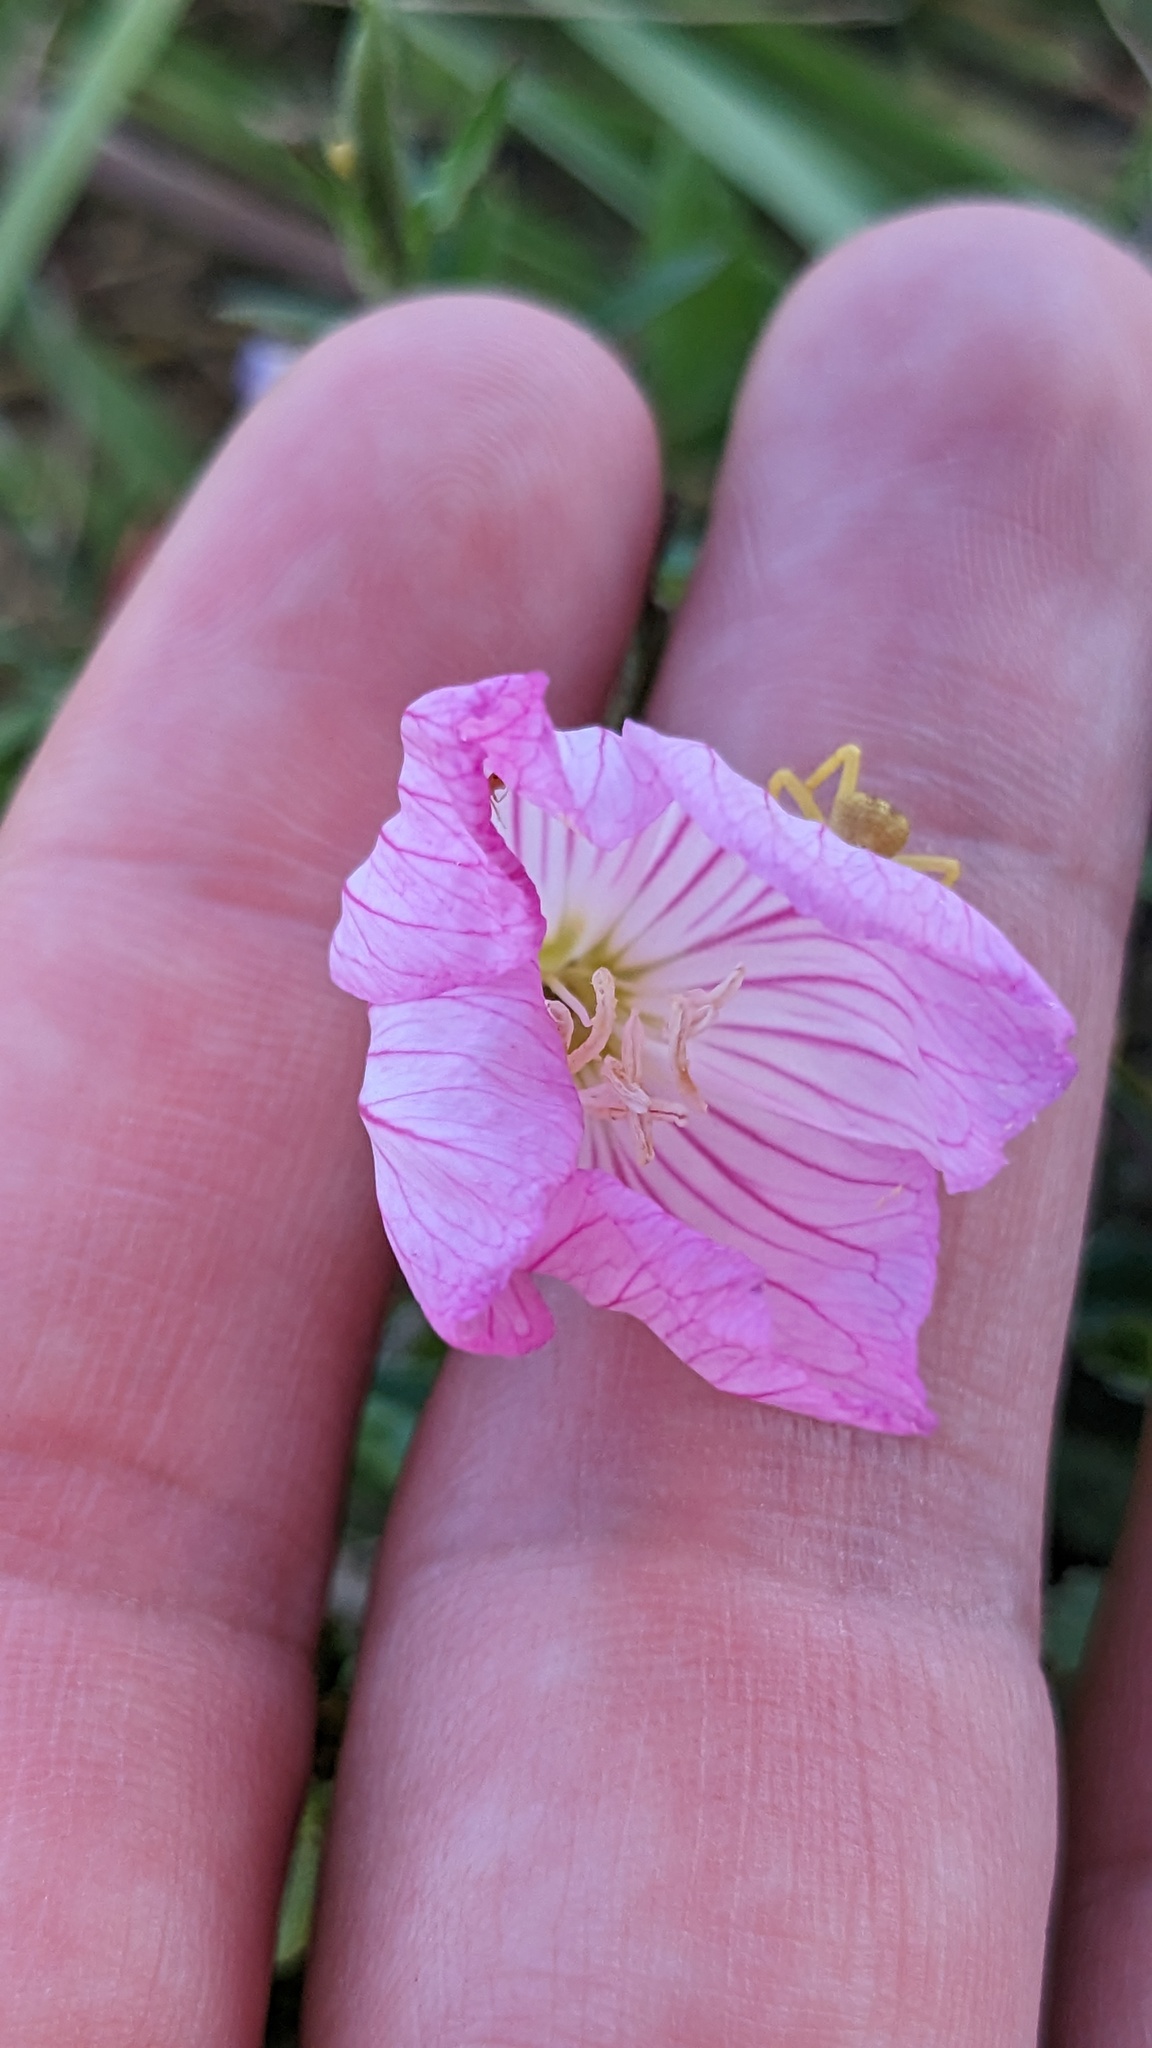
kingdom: Plantae
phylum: Tracheophyta
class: Magnoliopsida
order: Myrtales
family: Onagraceae
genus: Oenothera
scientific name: Oenothera speciosa
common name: White evening-primrose
